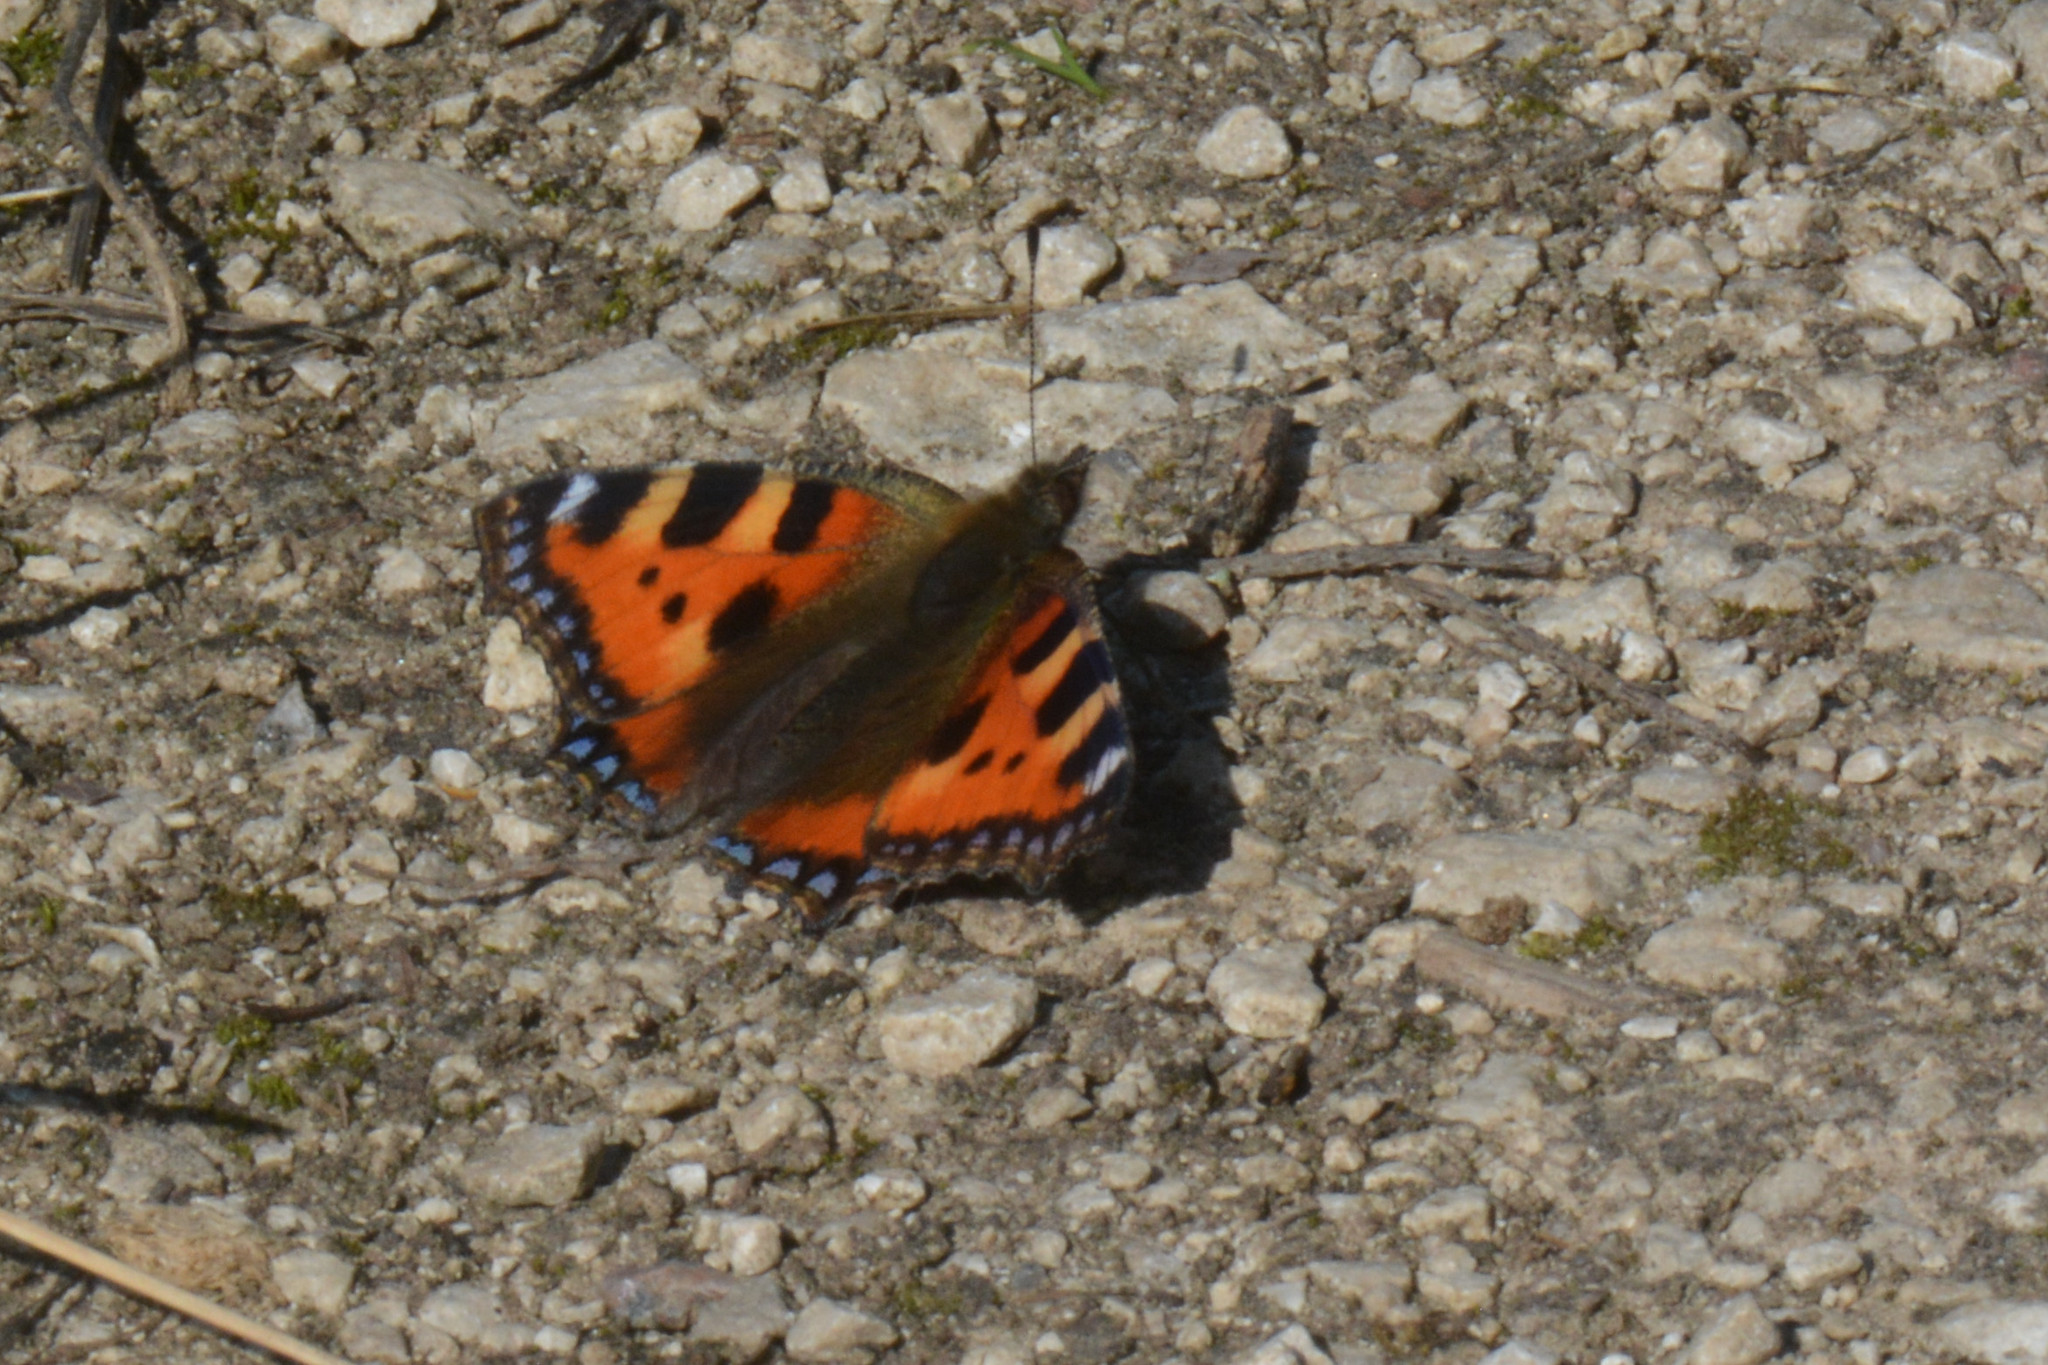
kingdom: Animalia
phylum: Arthropoda
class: Insecta
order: Lepidoptera
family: Nymphalidae
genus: Aglais
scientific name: Aglais urticae
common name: Small tortoiseshell
